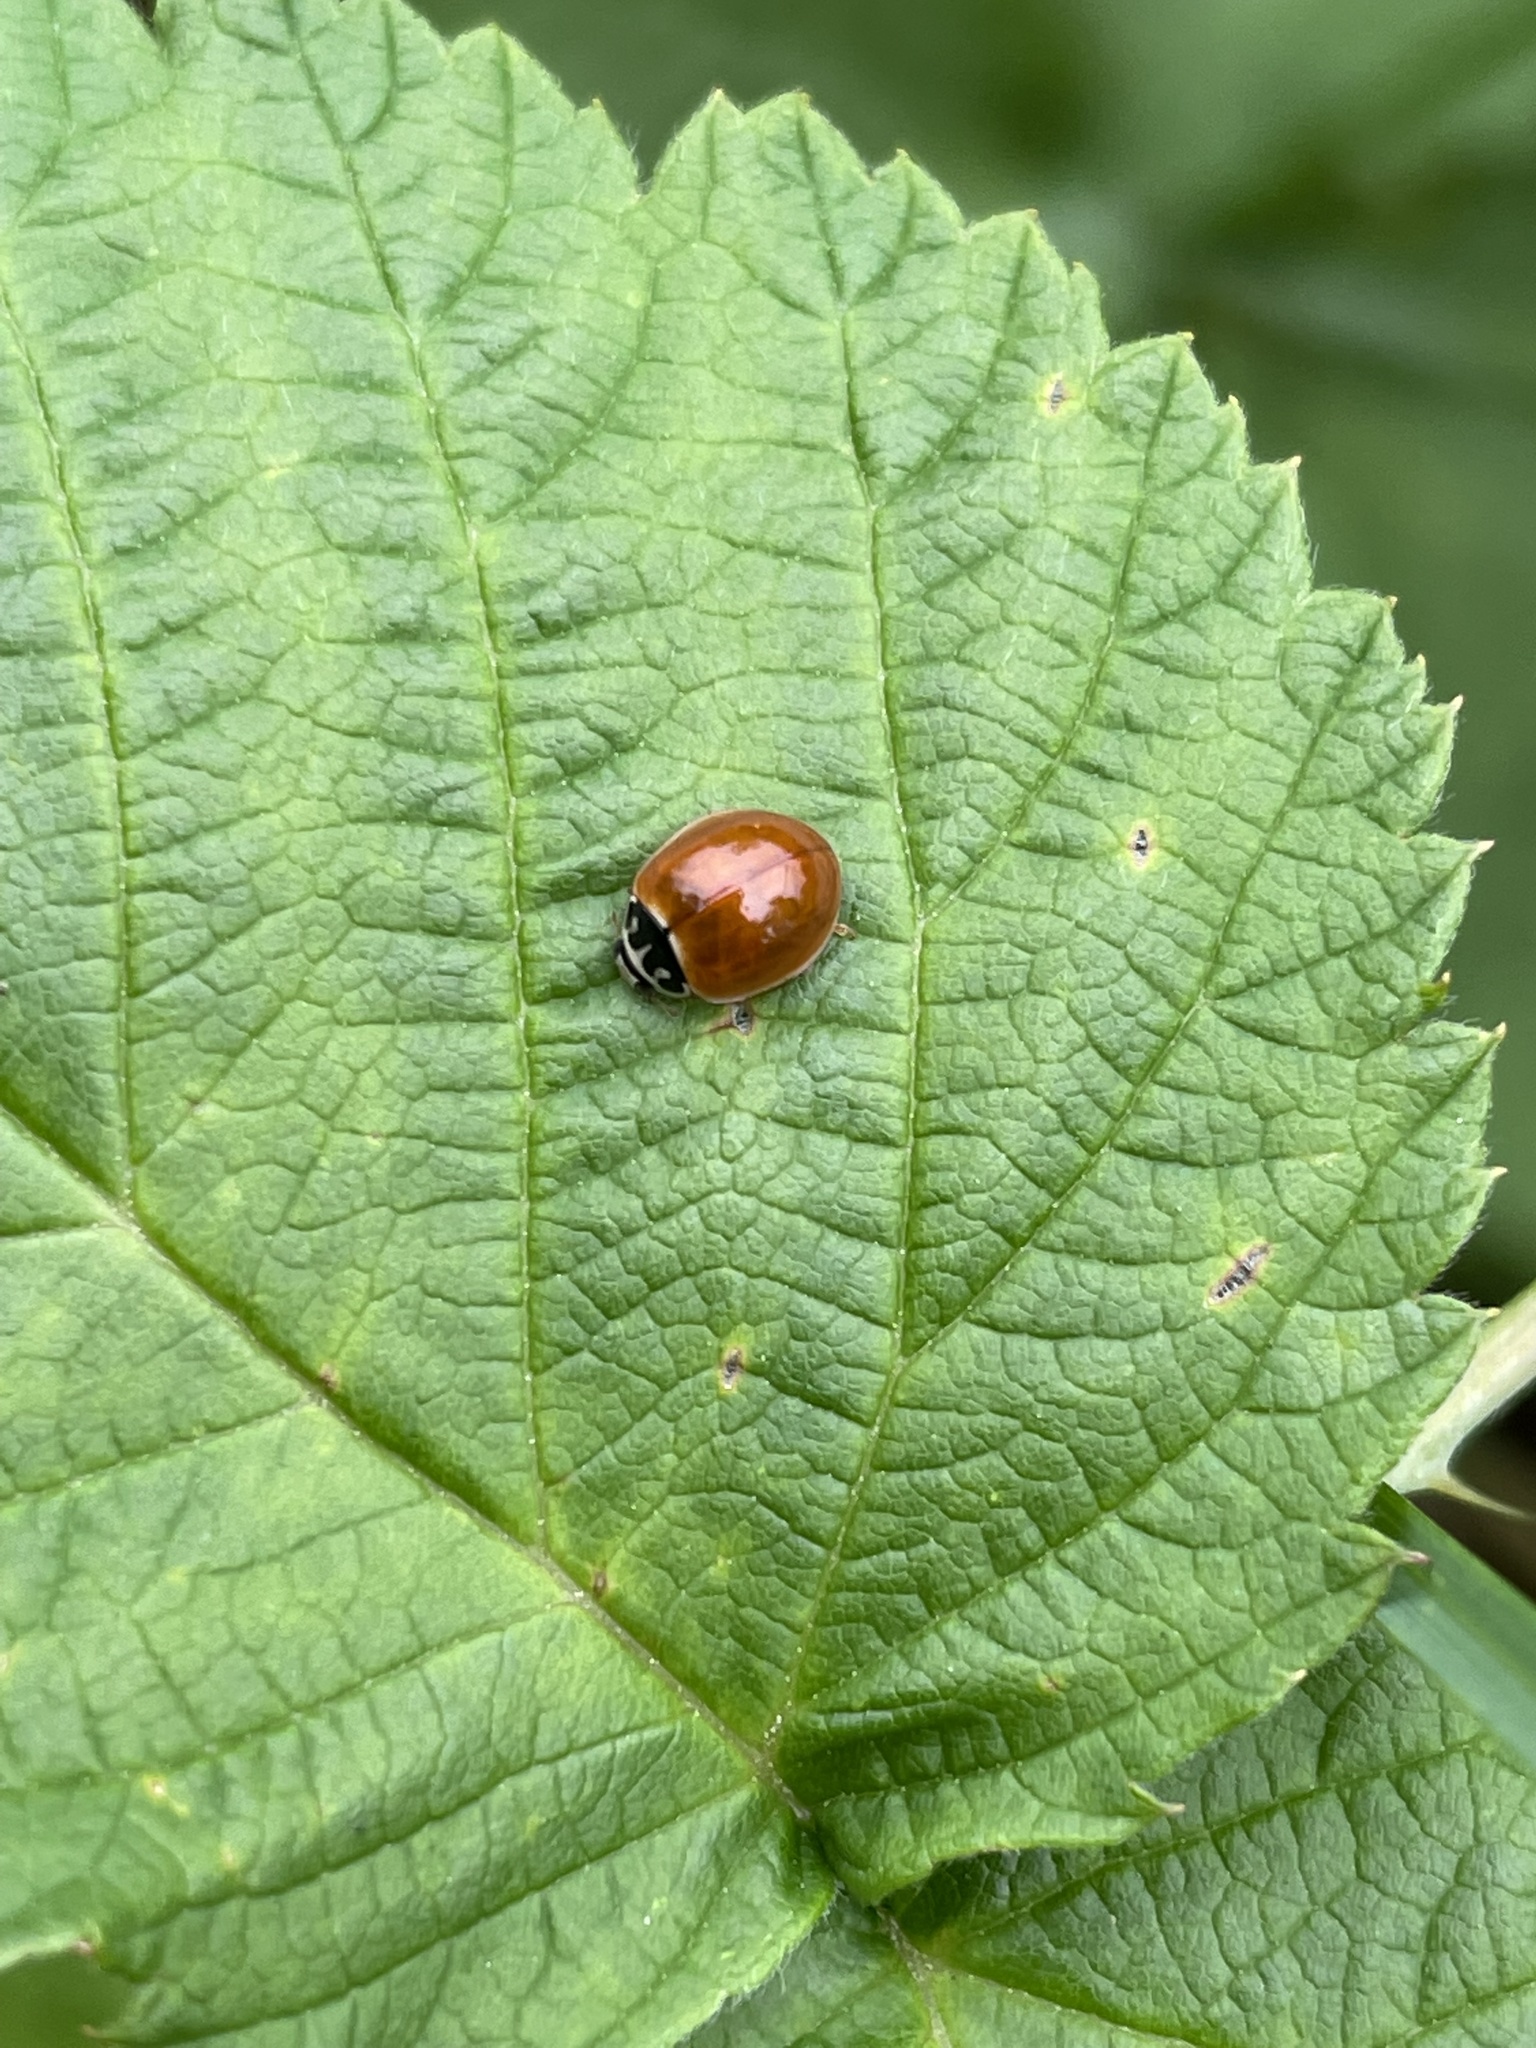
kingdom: Animalia
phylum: Arthropoda
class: Insecta
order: Coleoptera
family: Coccinellidae
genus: Cycloneda
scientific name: Cycloneda munda
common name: Polished lady beetle
